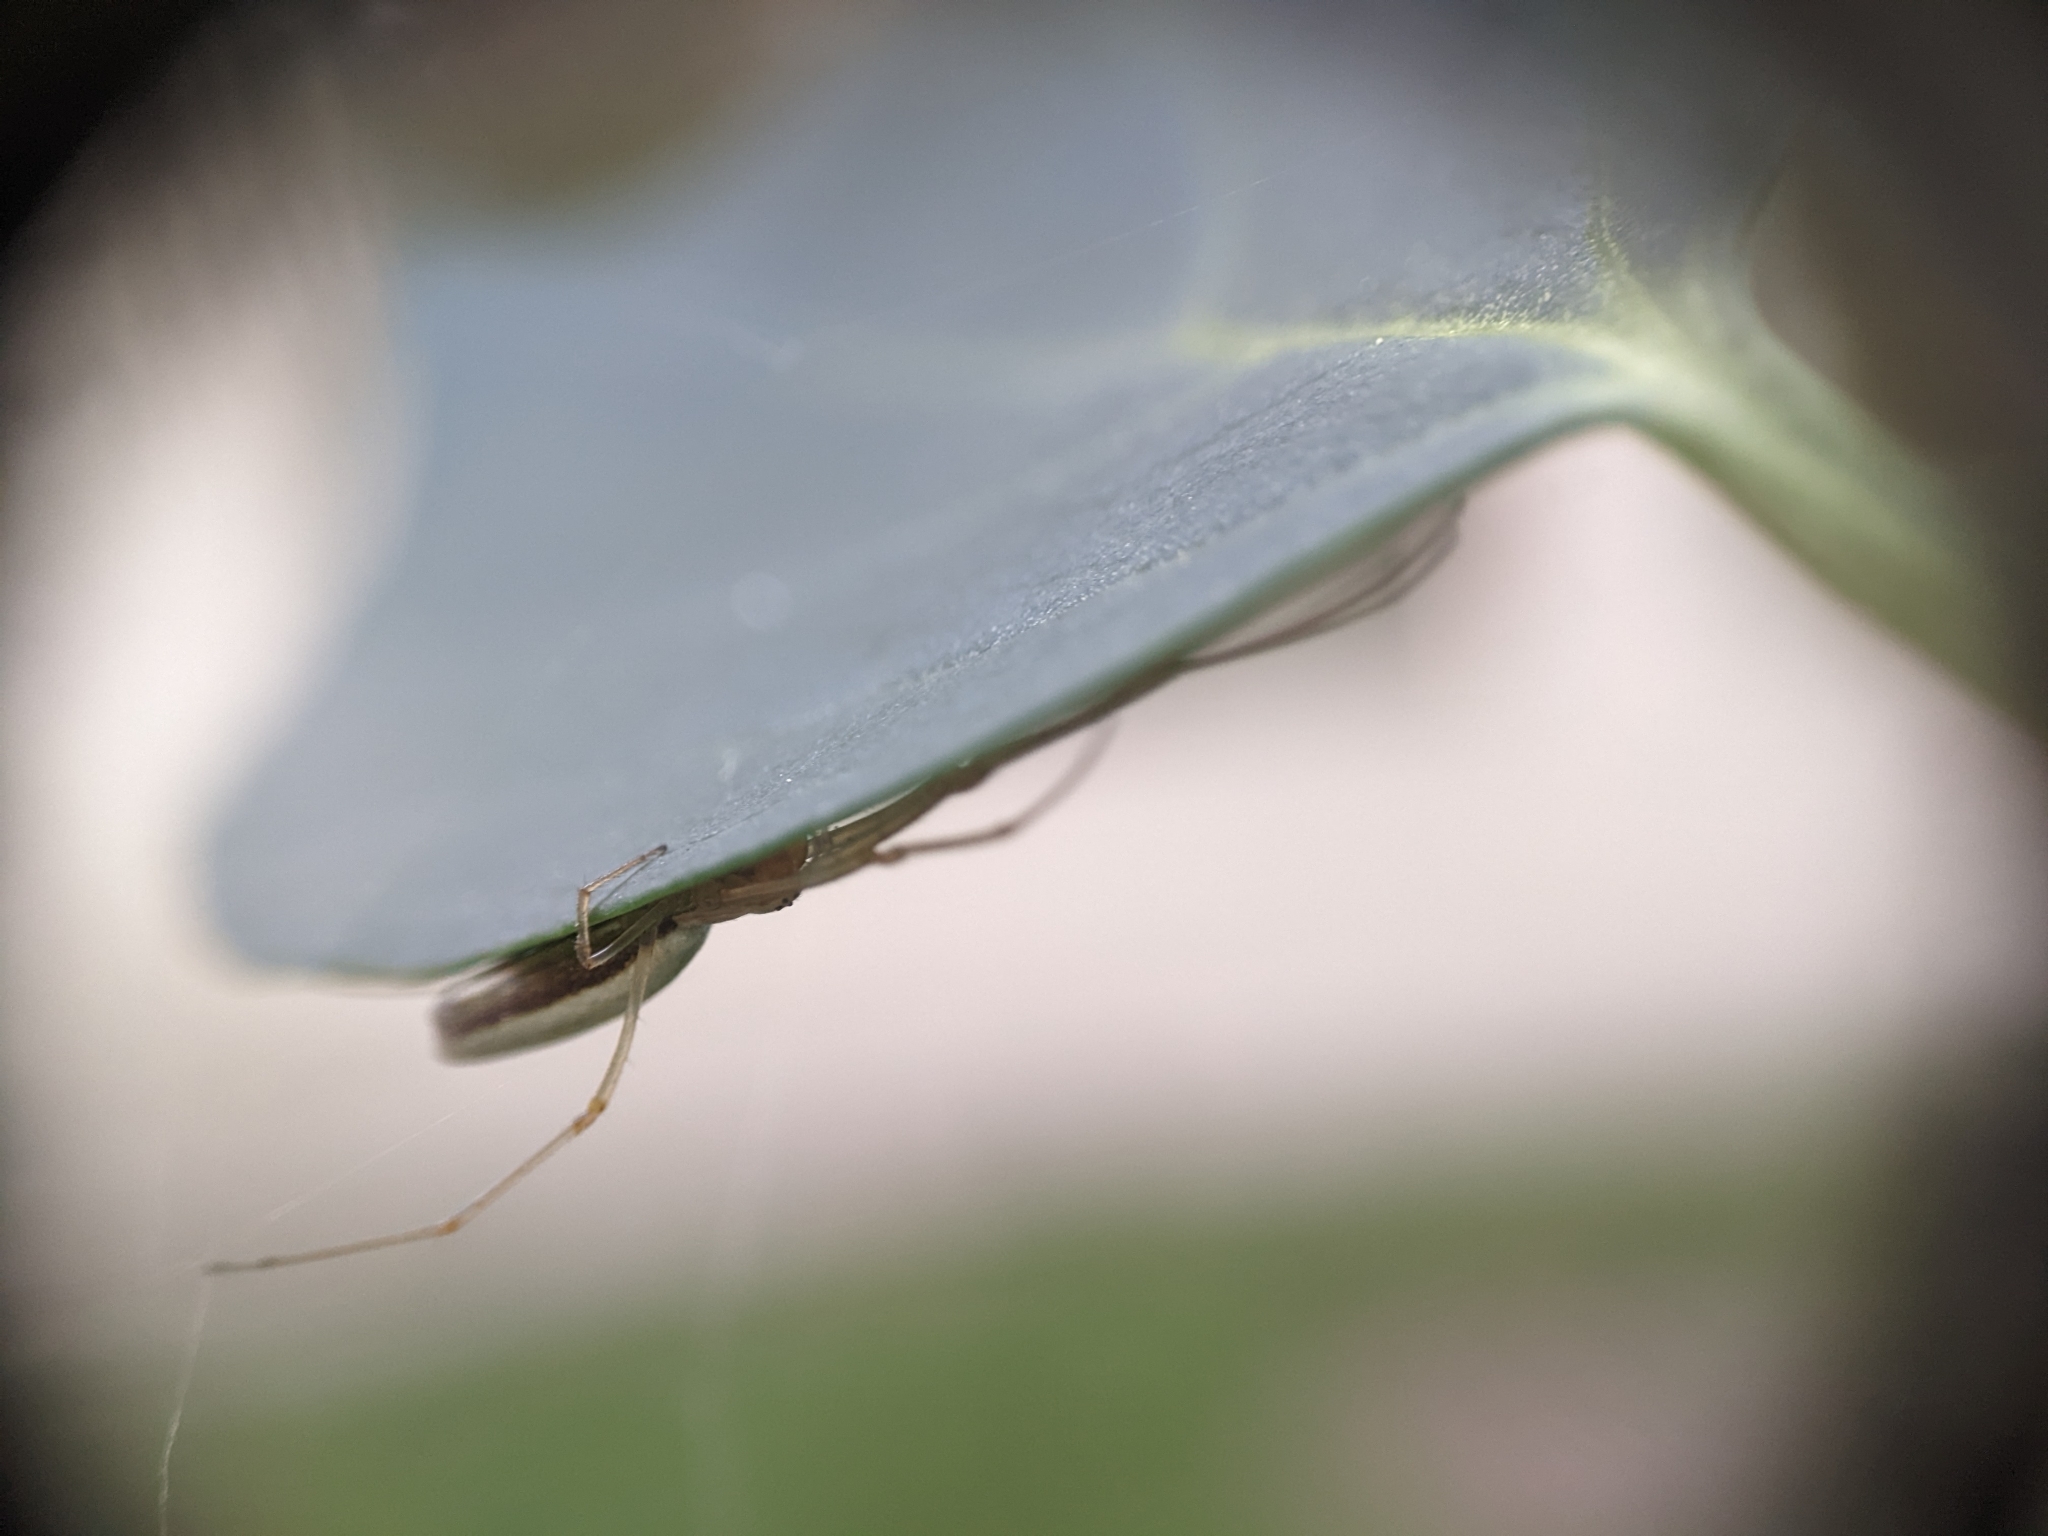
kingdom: Animalia
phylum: Arthropoda
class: Arachnida
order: Araneae
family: Tetragnathidae
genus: Tetragnatha
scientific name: Tetragnatha
